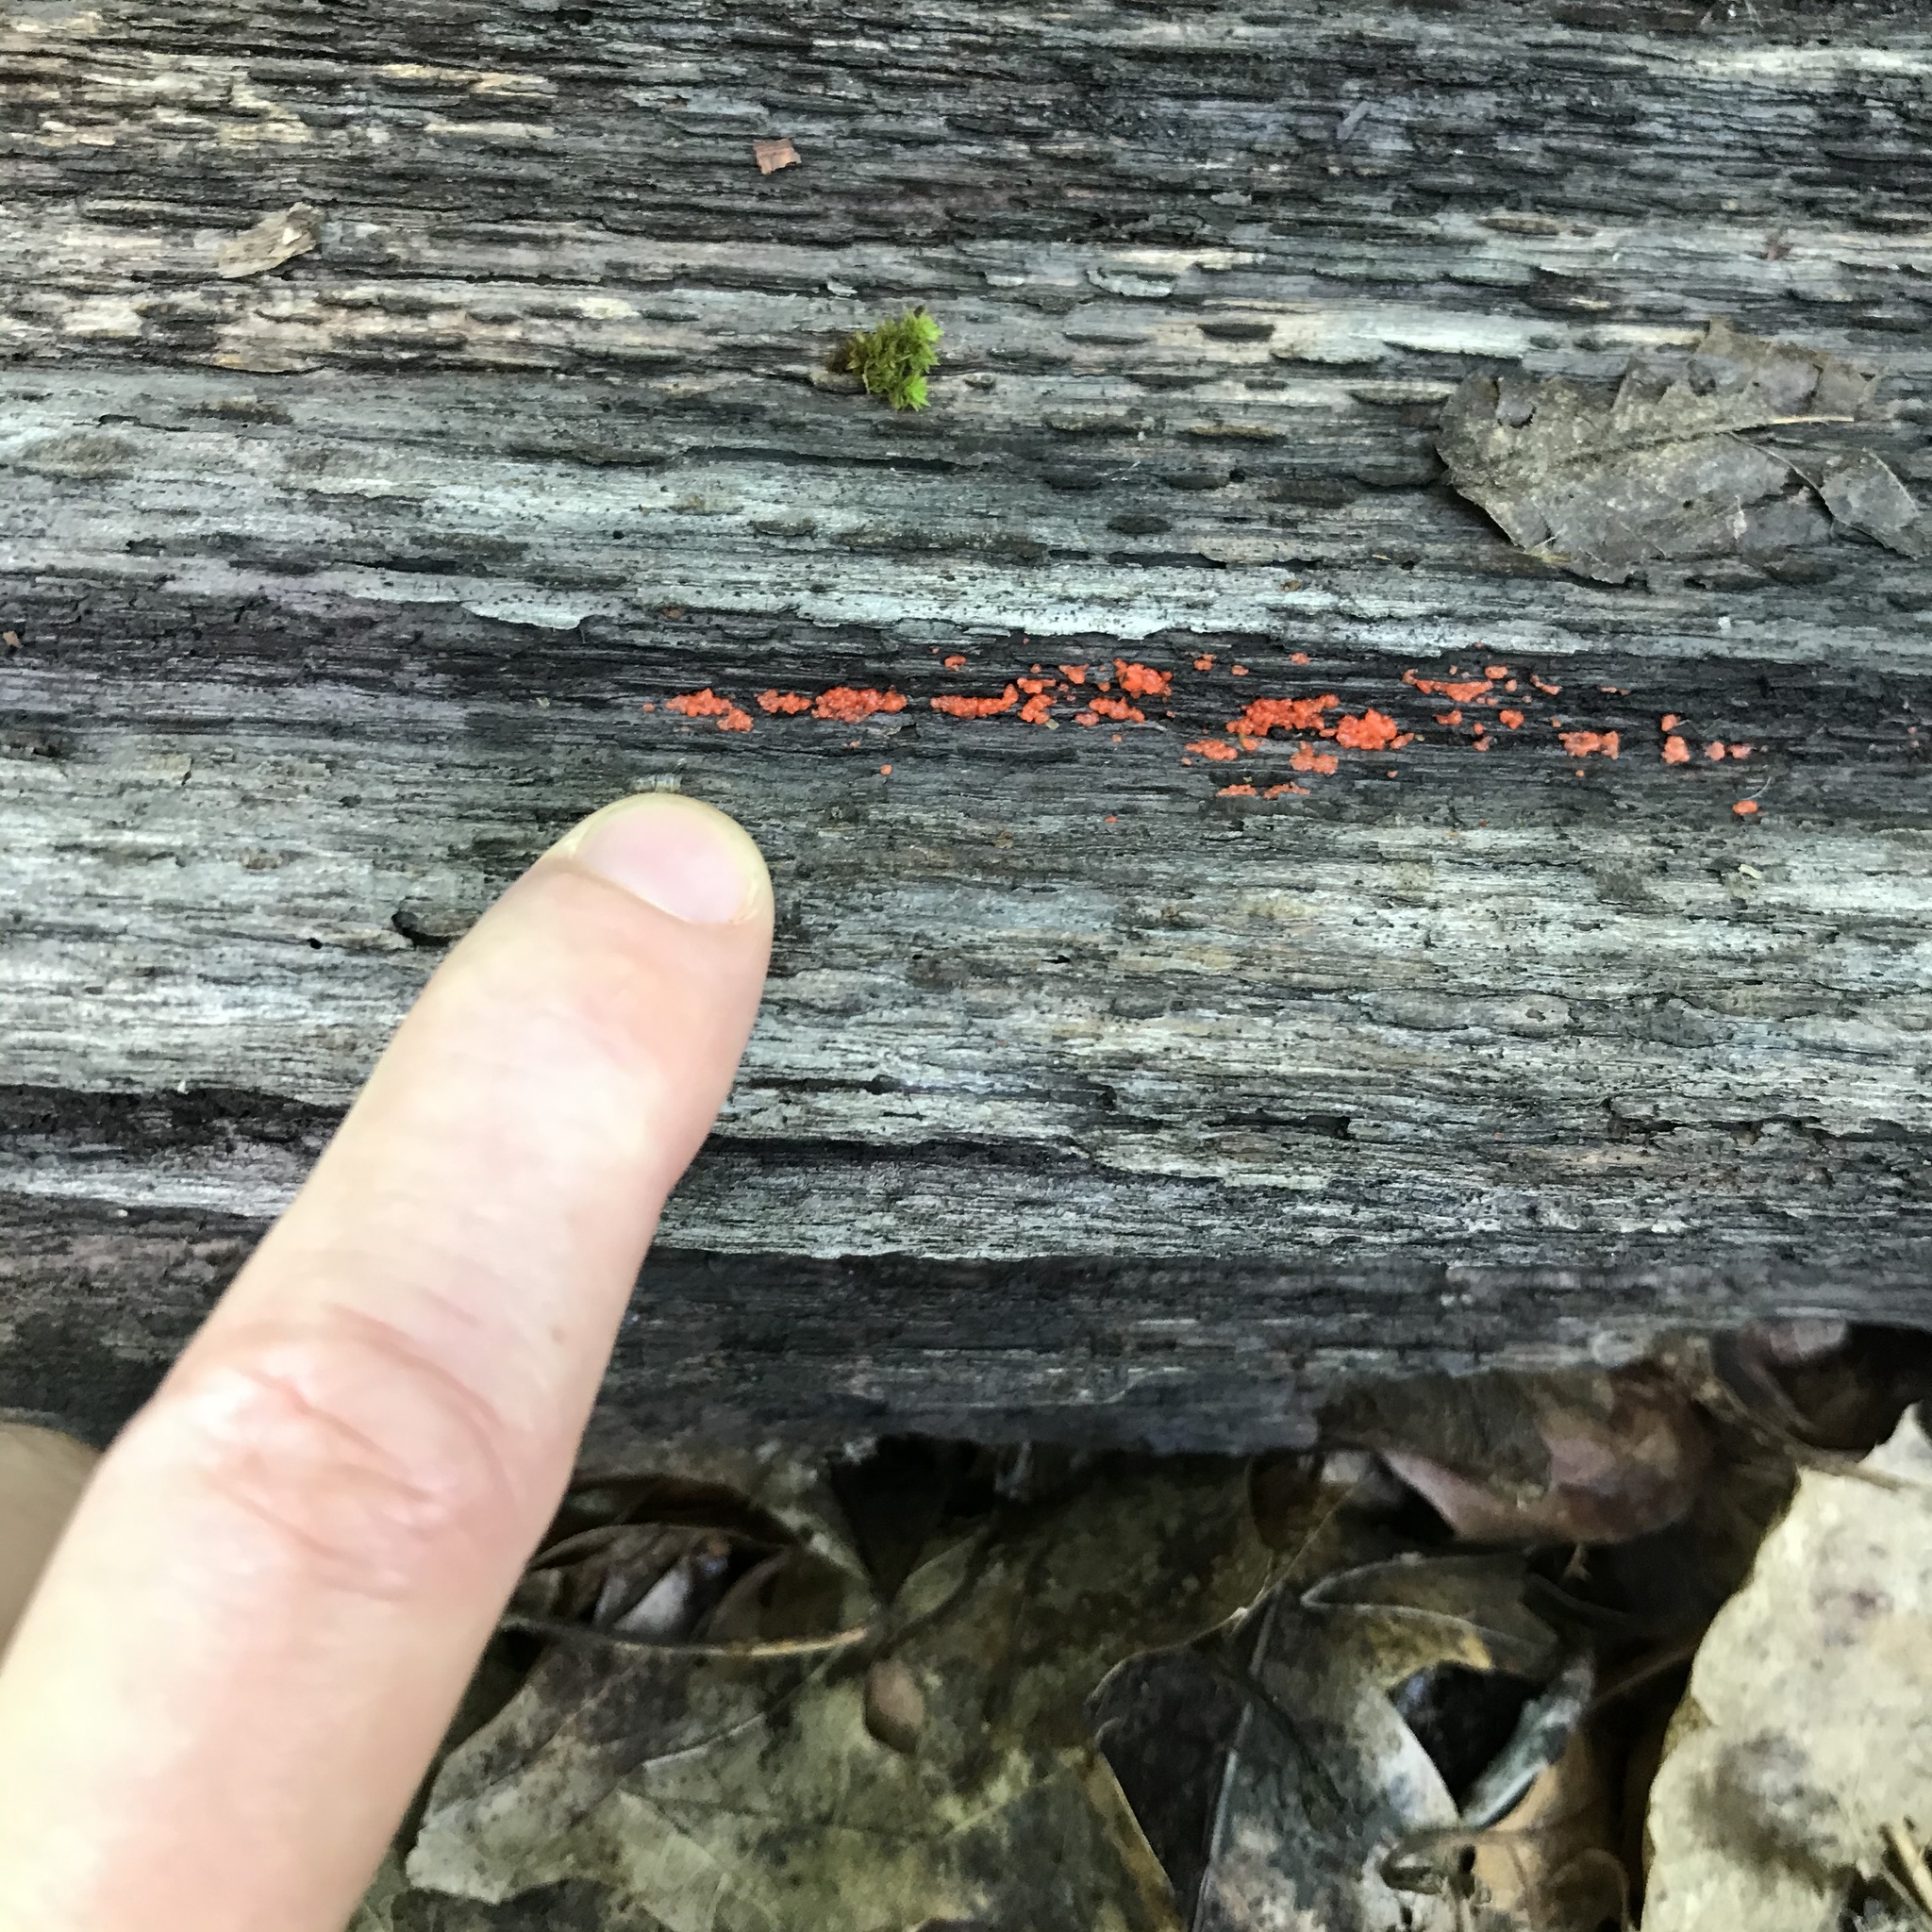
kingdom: Fungi
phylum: Basidiomycota
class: Agaricomycetes
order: Cantharellales
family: Tulasnellaceae
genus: Tulasnella
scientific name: Tulasnella aurantiaca
